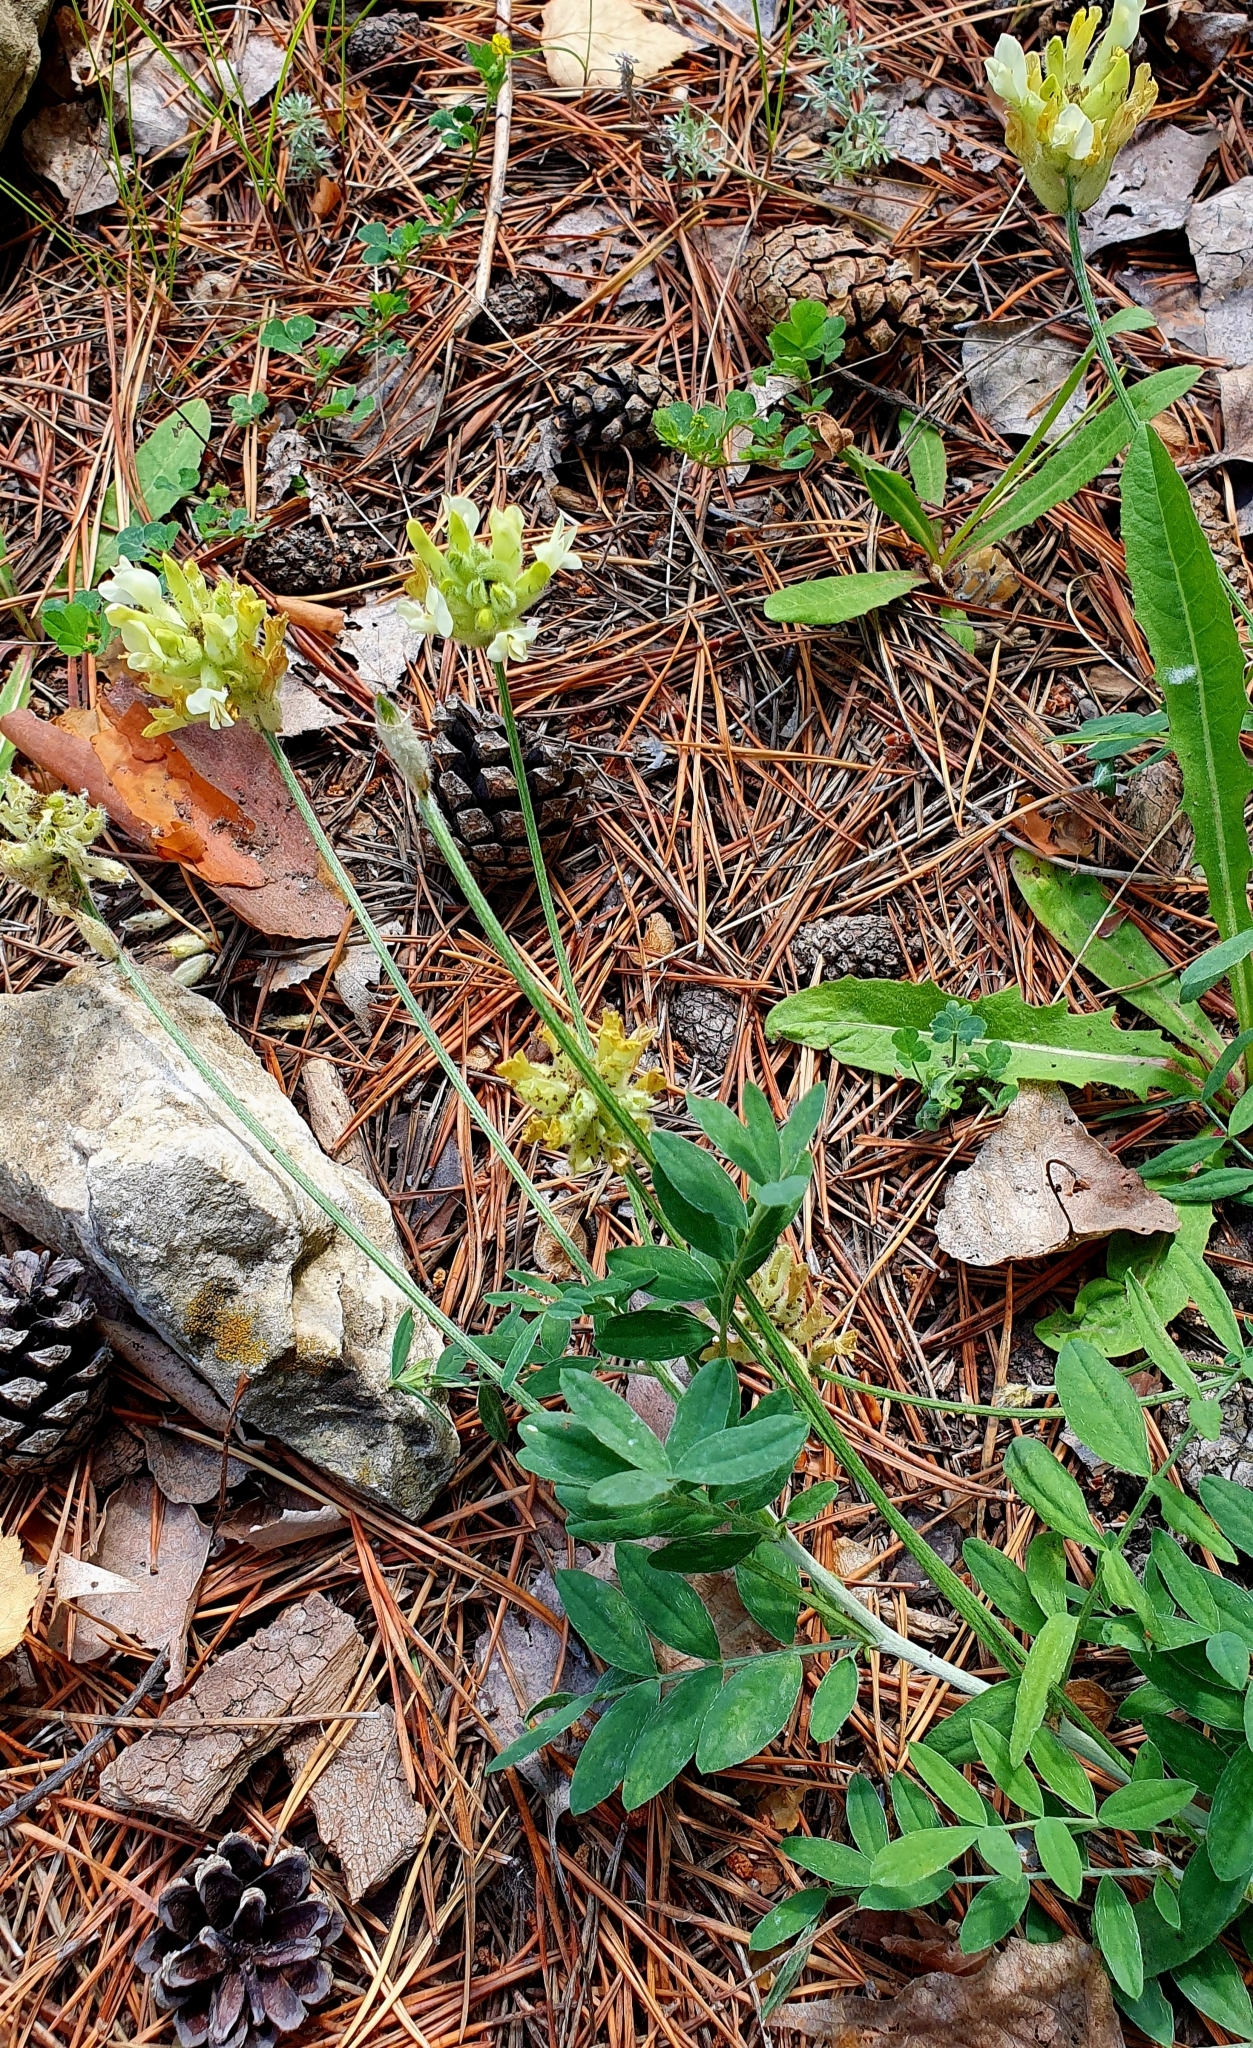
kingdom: Plantae
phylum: Tracheophyta
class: Magnoliopsida
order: Fabales
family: Fabaceae
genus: Astragalus
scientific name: Astragalus zingeri
